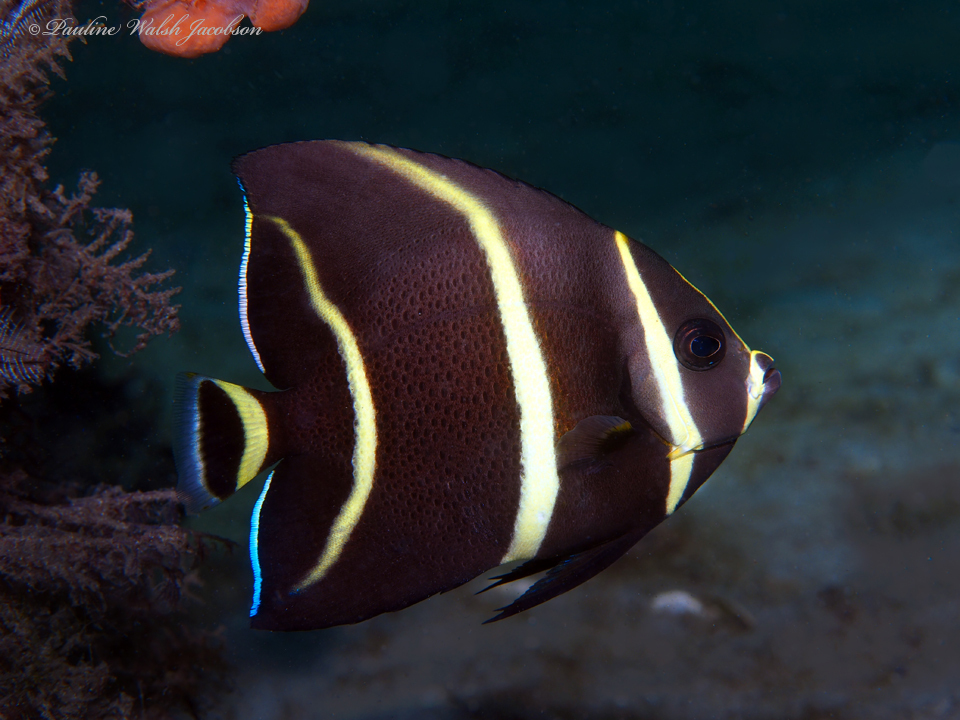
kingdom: Animalia
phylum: Chordata
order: Perciformes
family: Pomacanthidae
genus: Pomacanthus
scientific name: Pomacanthus arcuatus
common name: Gray angelfish
